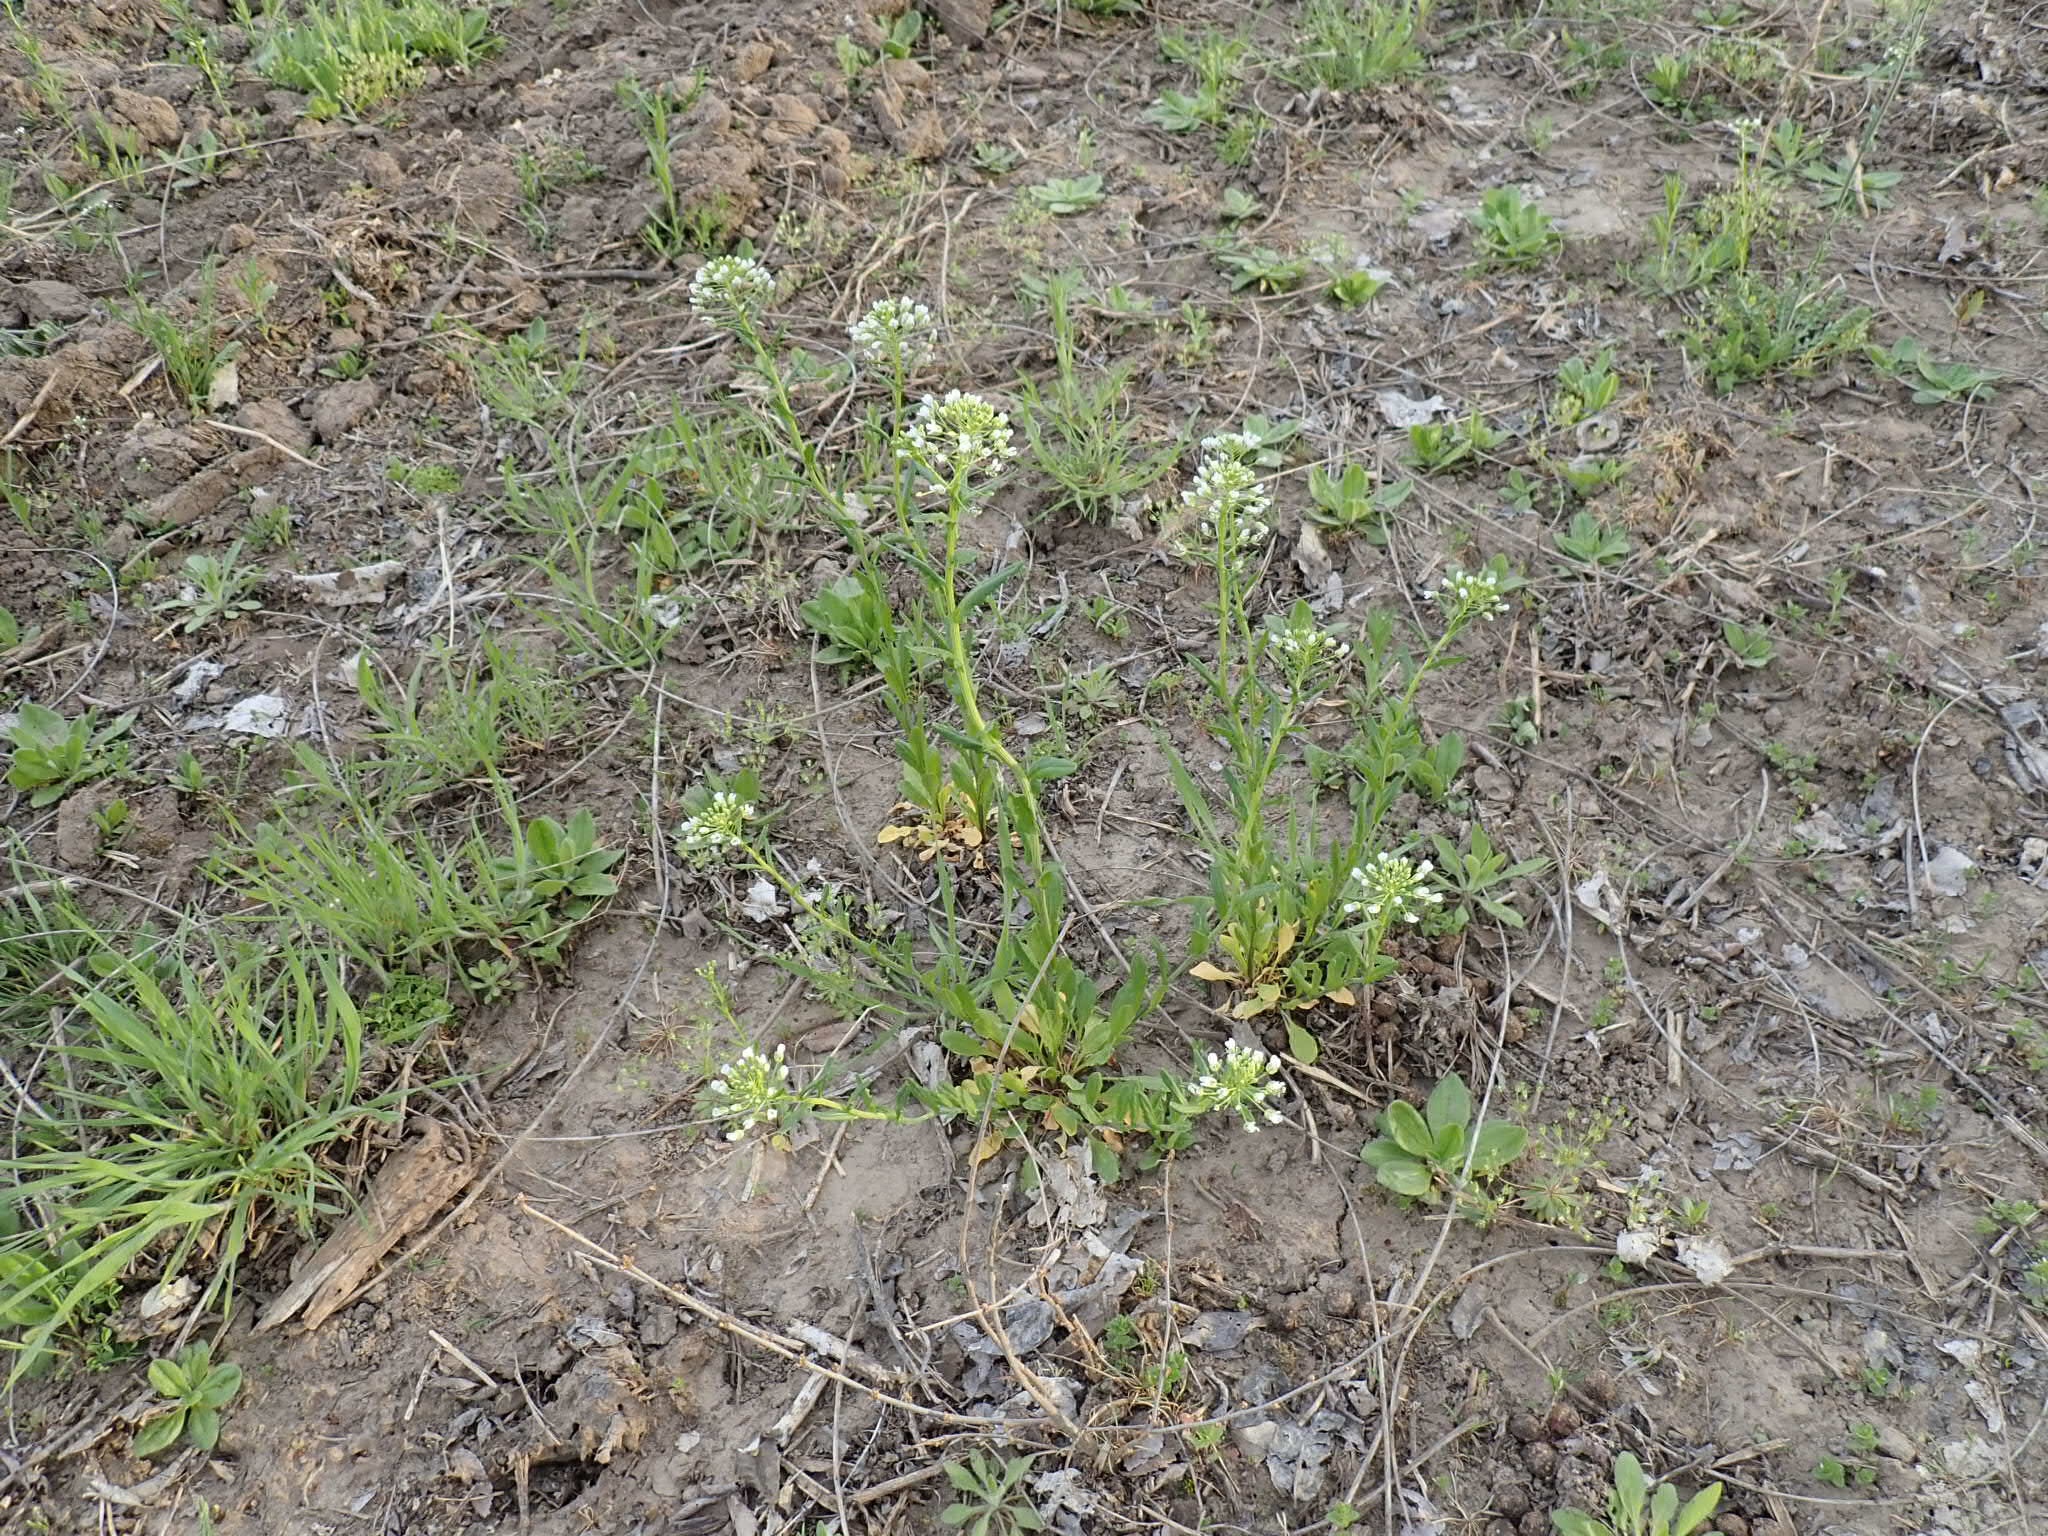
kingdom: Plantae
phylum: Tracheophyta
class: Magnoliopsida
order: Brassicales
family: Brassicaceae
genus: Thlaspi
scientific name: Thlaspi arvense
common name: Field pennycress
